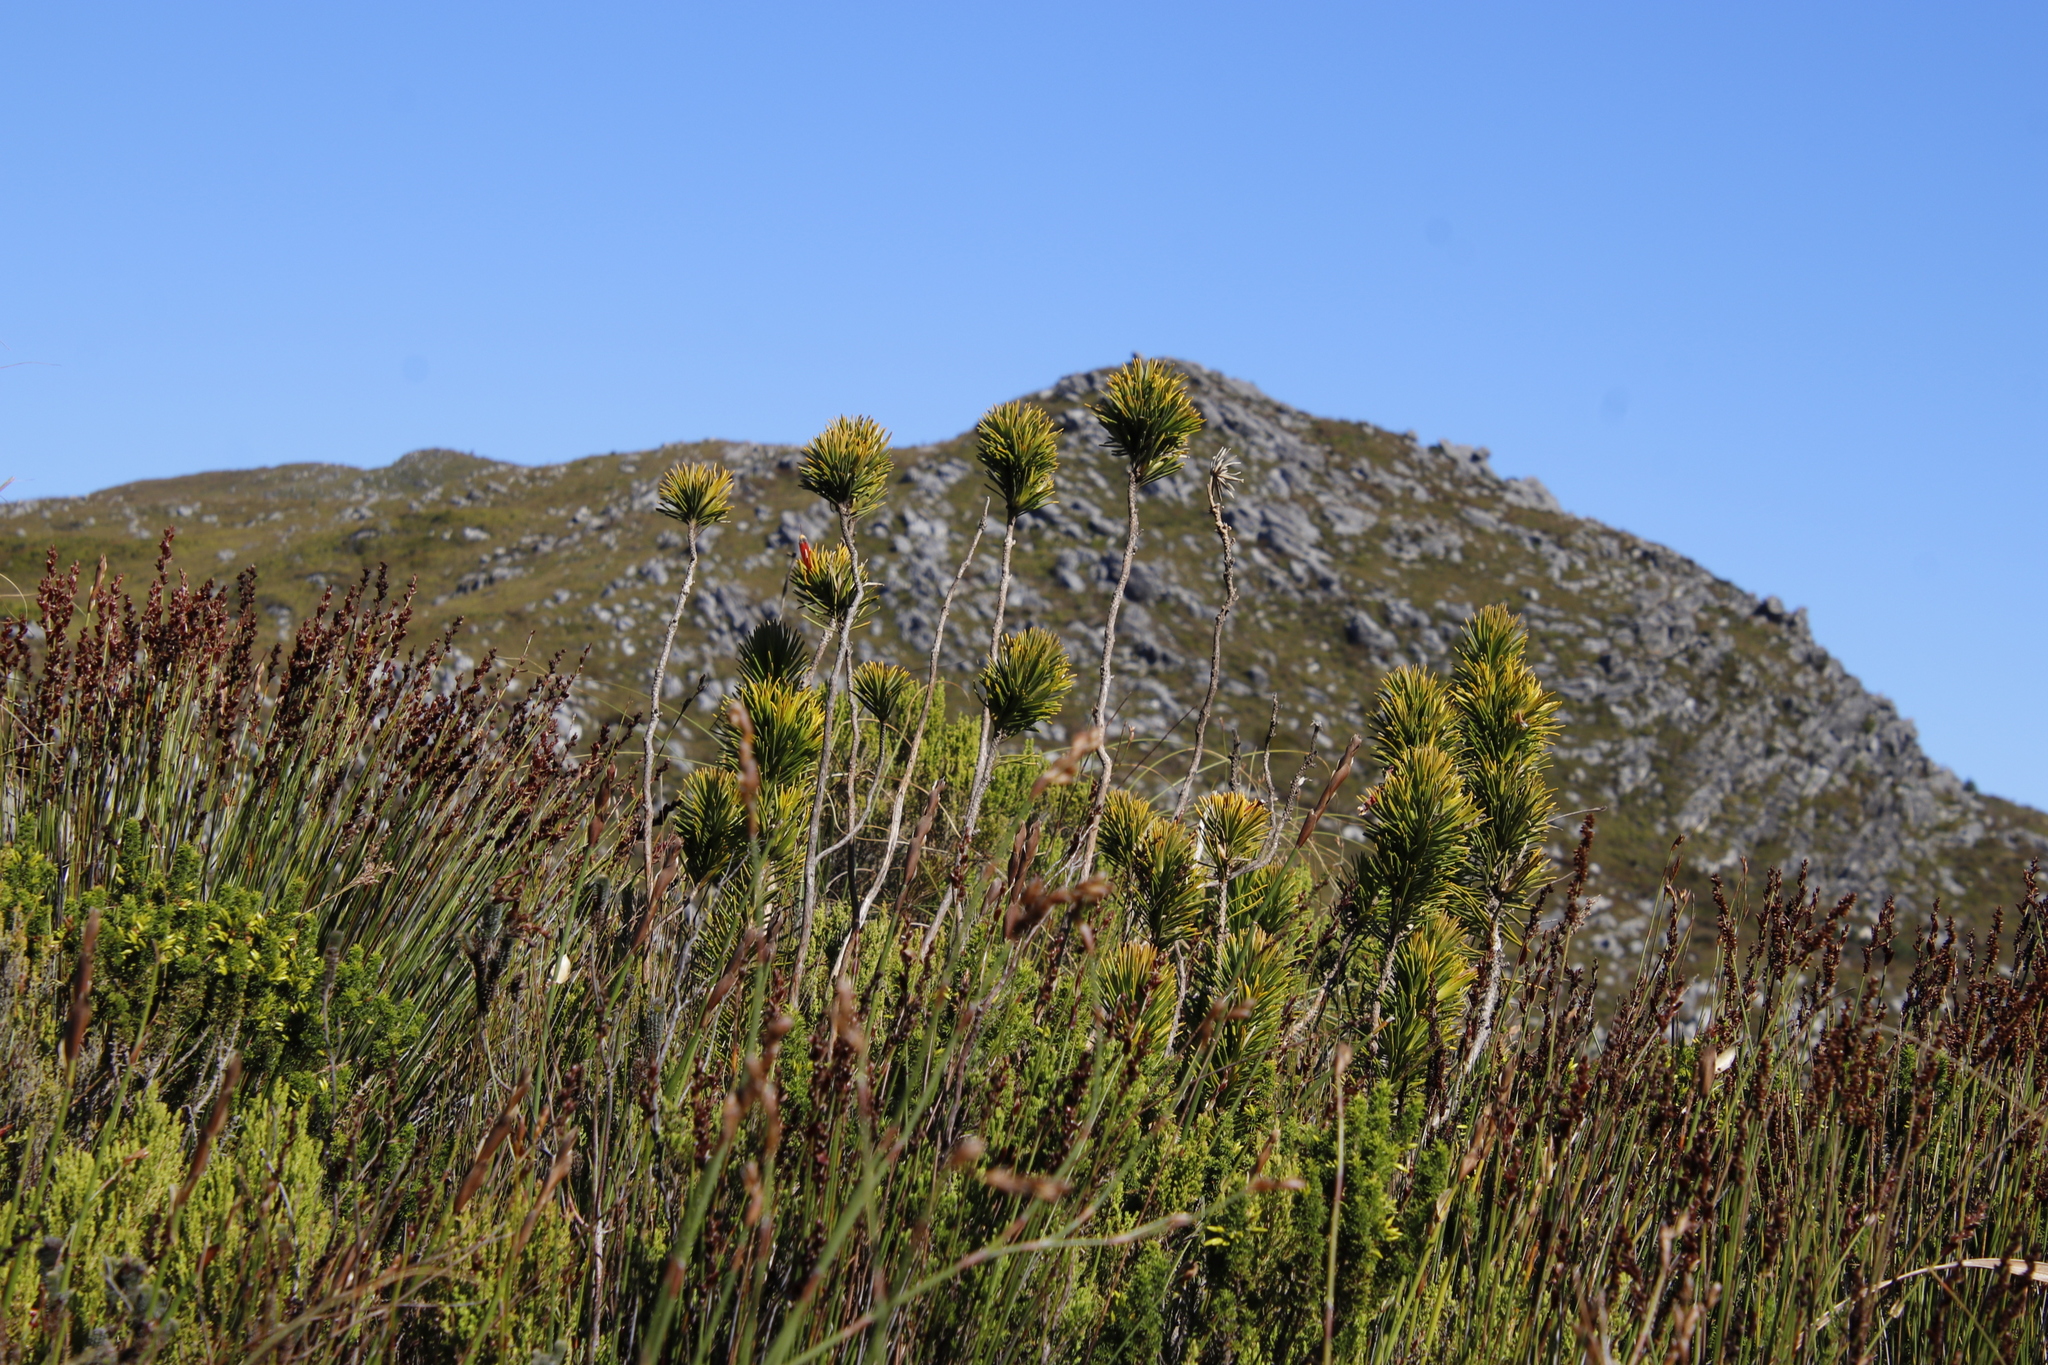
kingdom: Plantae
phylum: Tracheophyta
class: Magnoliopsida
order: Lamiales
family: Stilbaceae
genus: Retzia
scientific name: Retzia capensis
